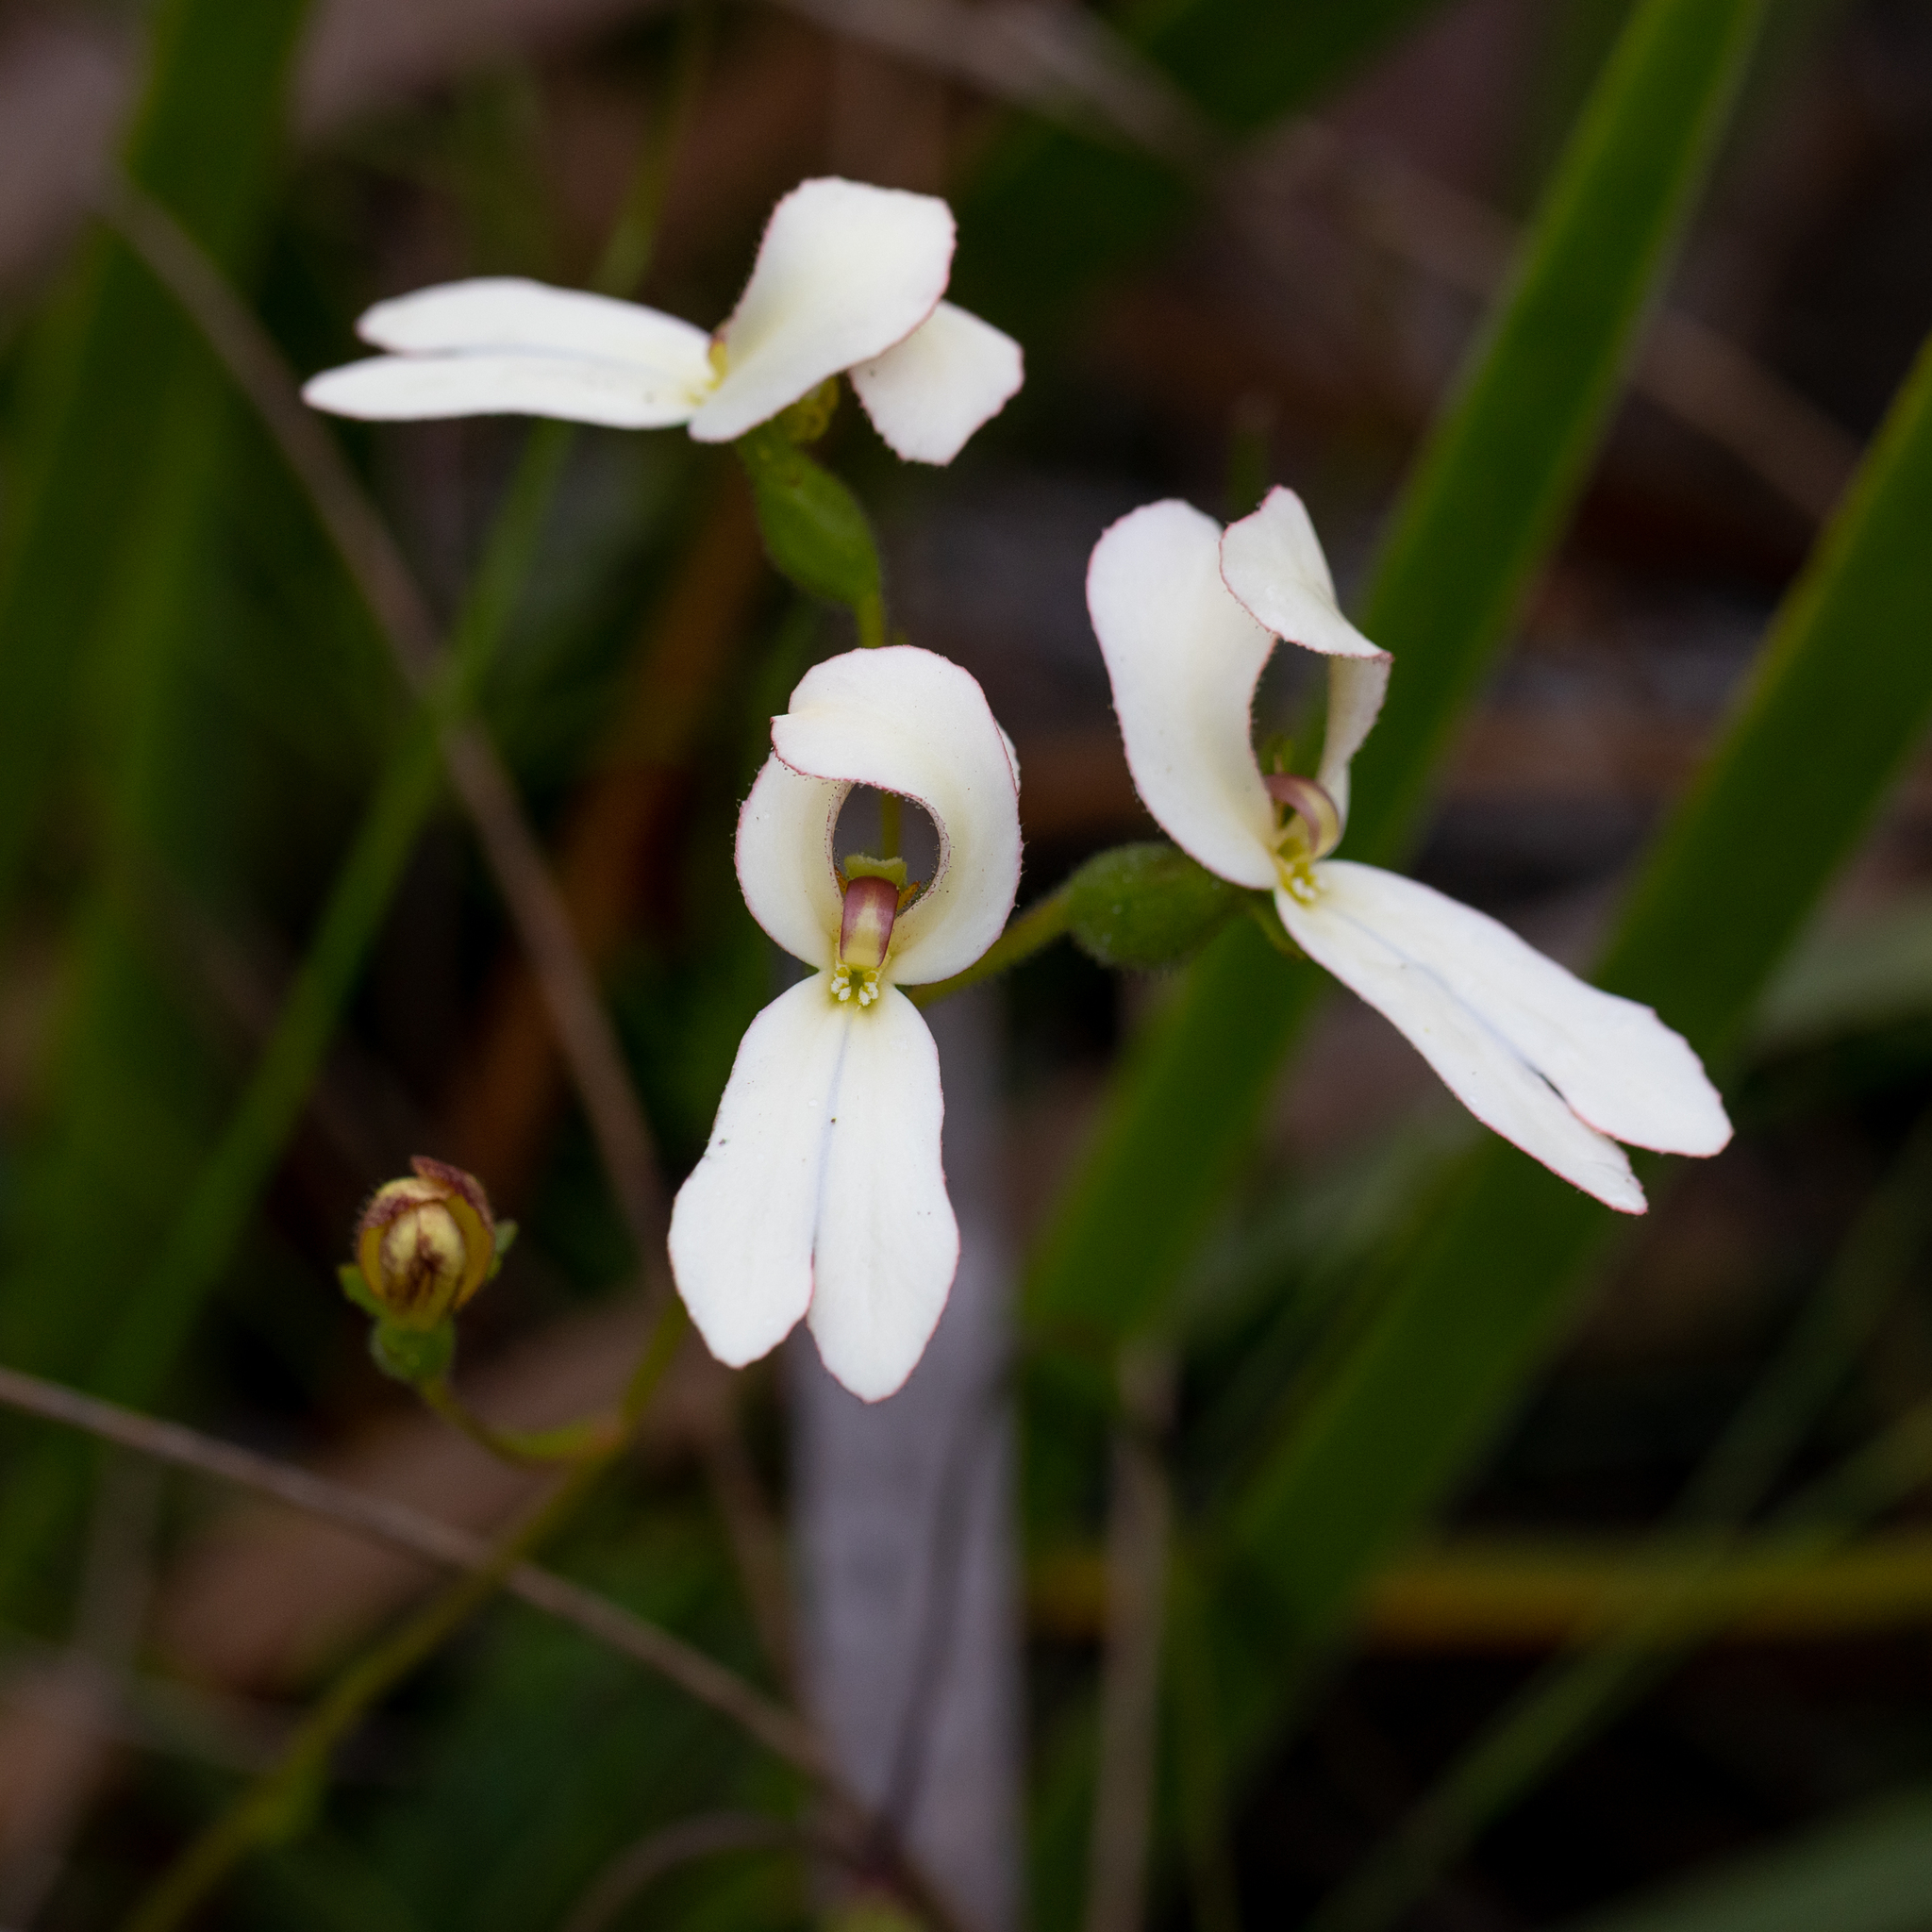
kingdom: Plantae
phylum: Tracheophyta
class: Magnoliopsida
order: Asterales
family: Stylidiaceae
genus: Stylidium
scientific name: Stylidium schoenoides
